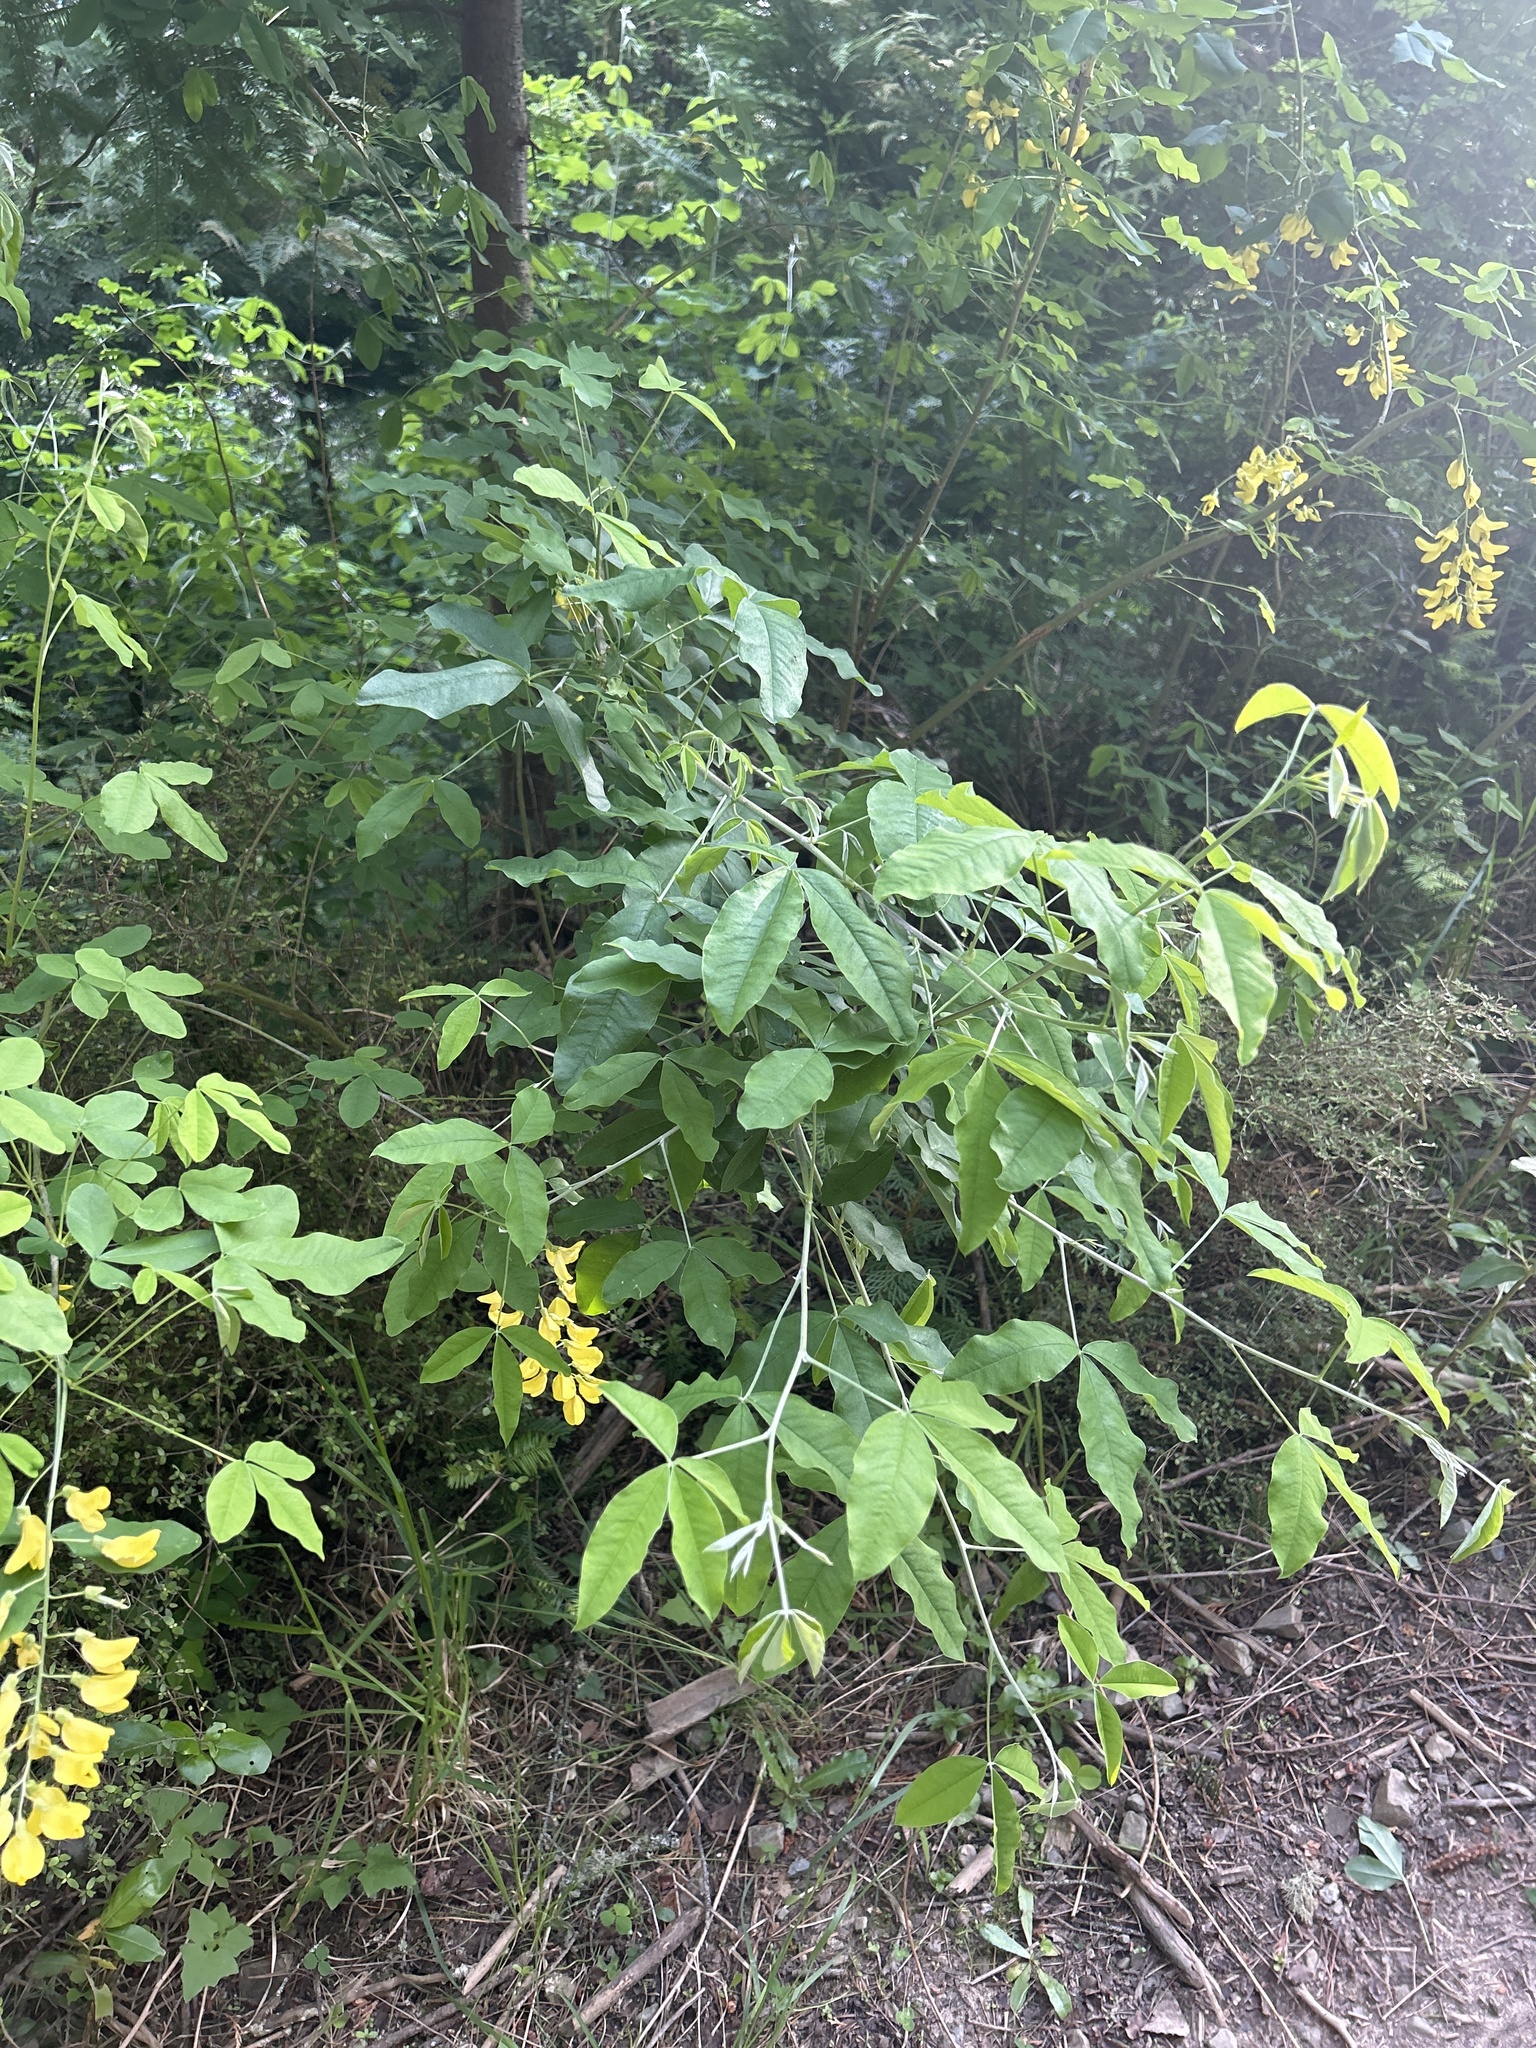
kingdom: Plantae
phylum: Tracheophyta
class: Magnoliopsida
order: Fabales
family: Fabaceae
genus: Laburnum
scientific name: Laburnum anagyroides
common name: Laburnum
